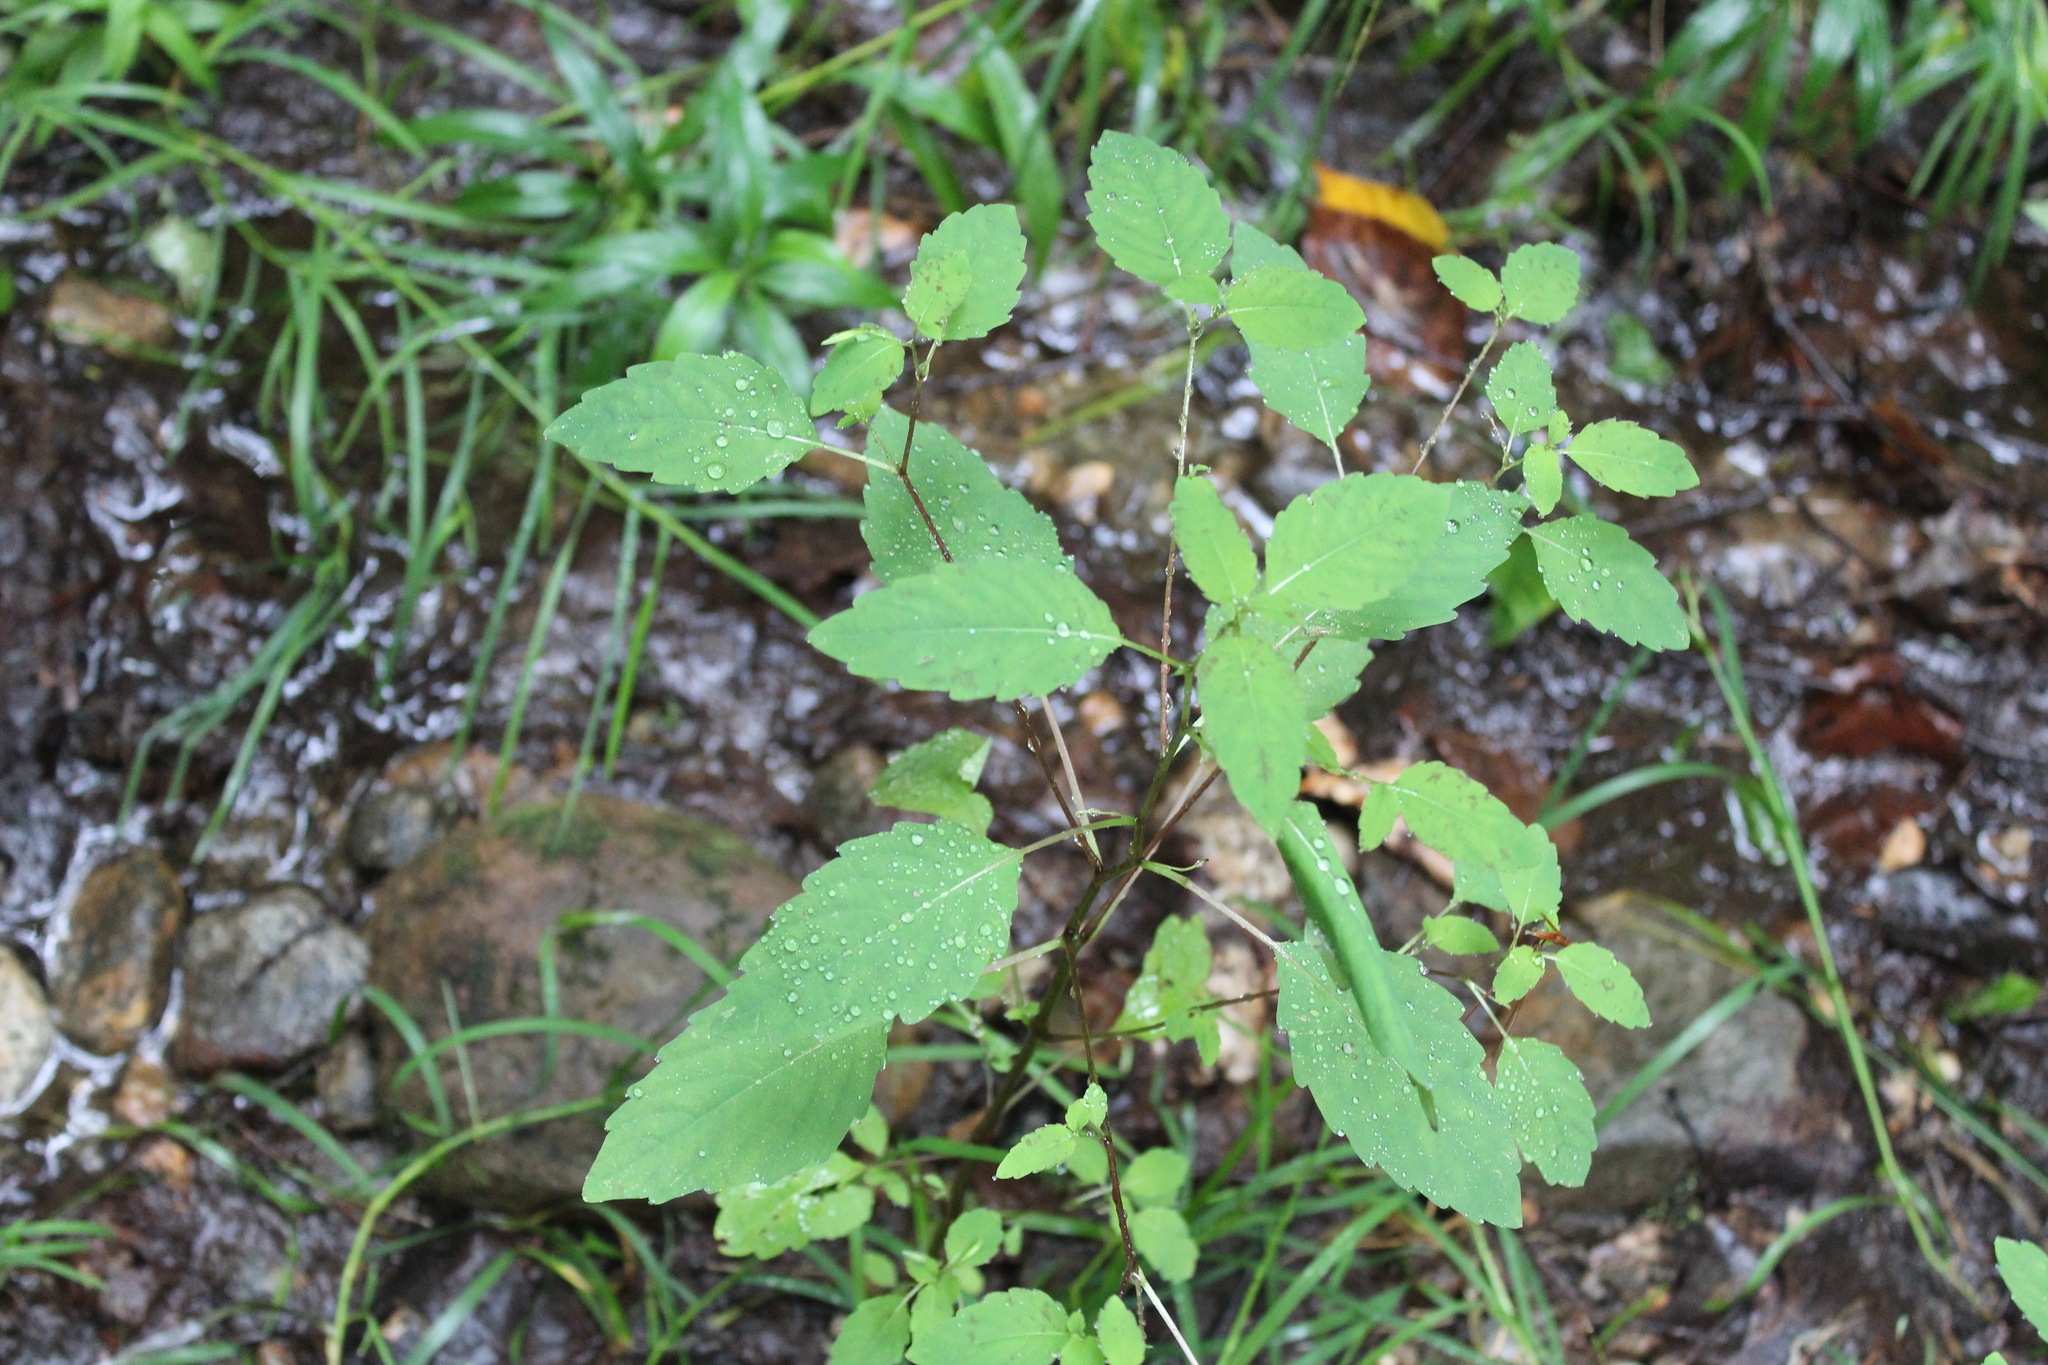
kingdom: Plantae
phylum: Tracheophyta
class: Magnoliopsida
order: Ericales
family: Balsaminaceae
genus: Impatiens
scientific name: Impatiens capensis
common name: Orange balsam
